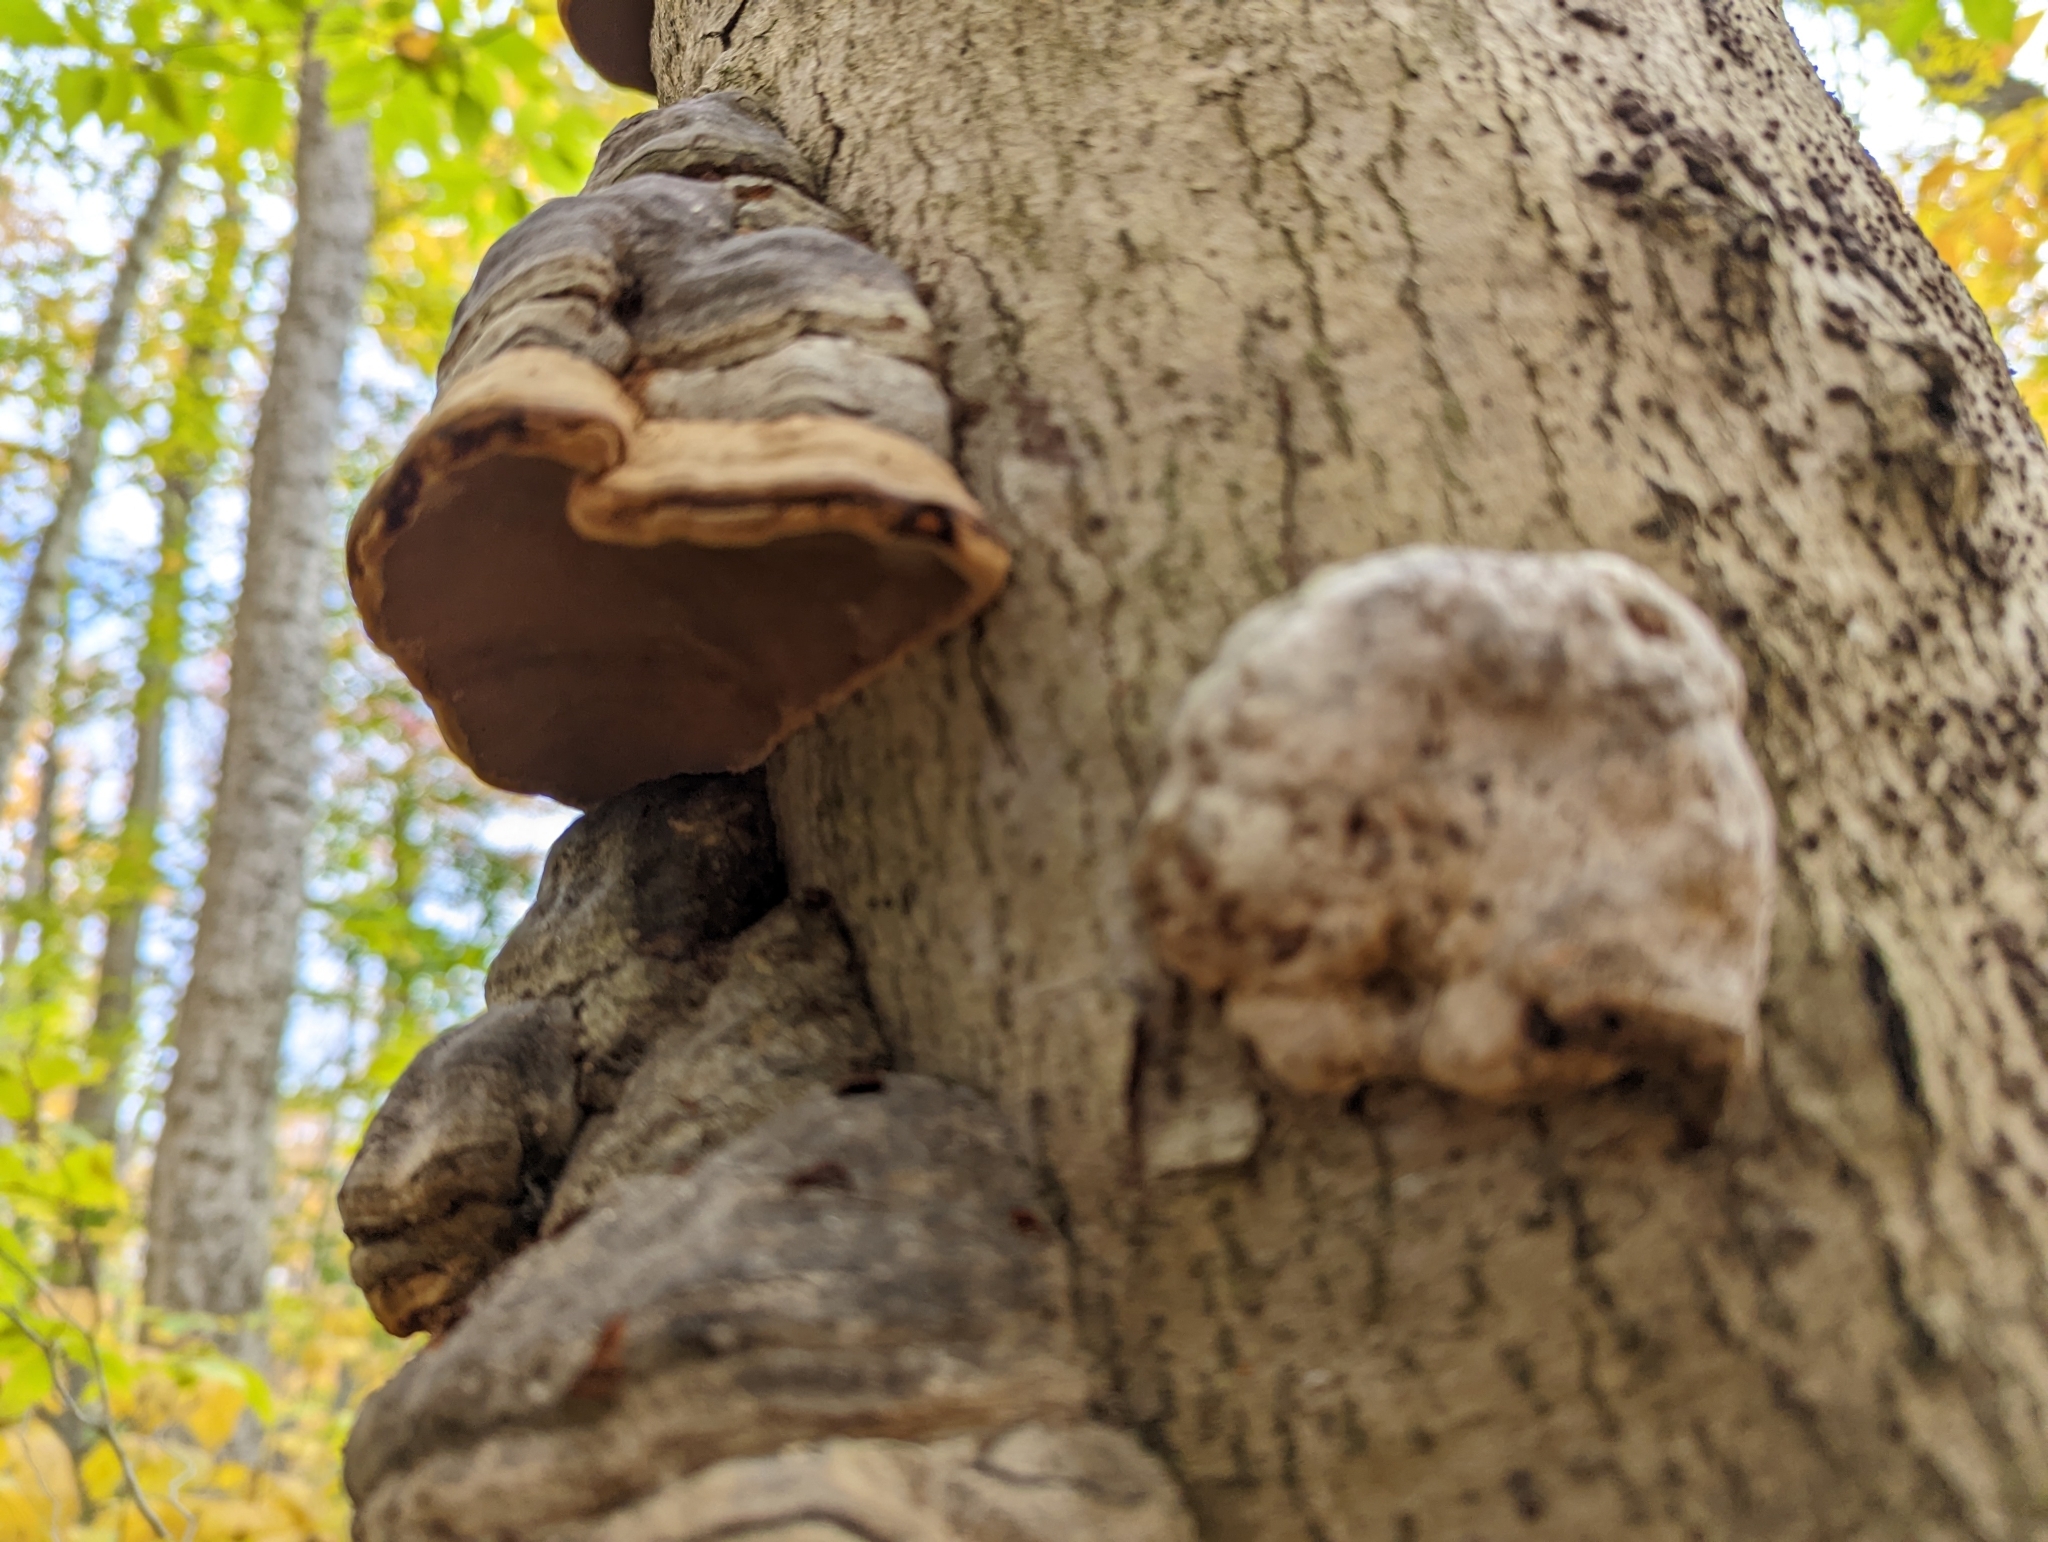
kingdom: Fungi
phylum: Basidiomycota
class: Agaricomycetes
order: Polyporales
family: Polyporaceae
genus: Fomes
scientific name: Fomes fomentarius
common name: Hoof fungus
